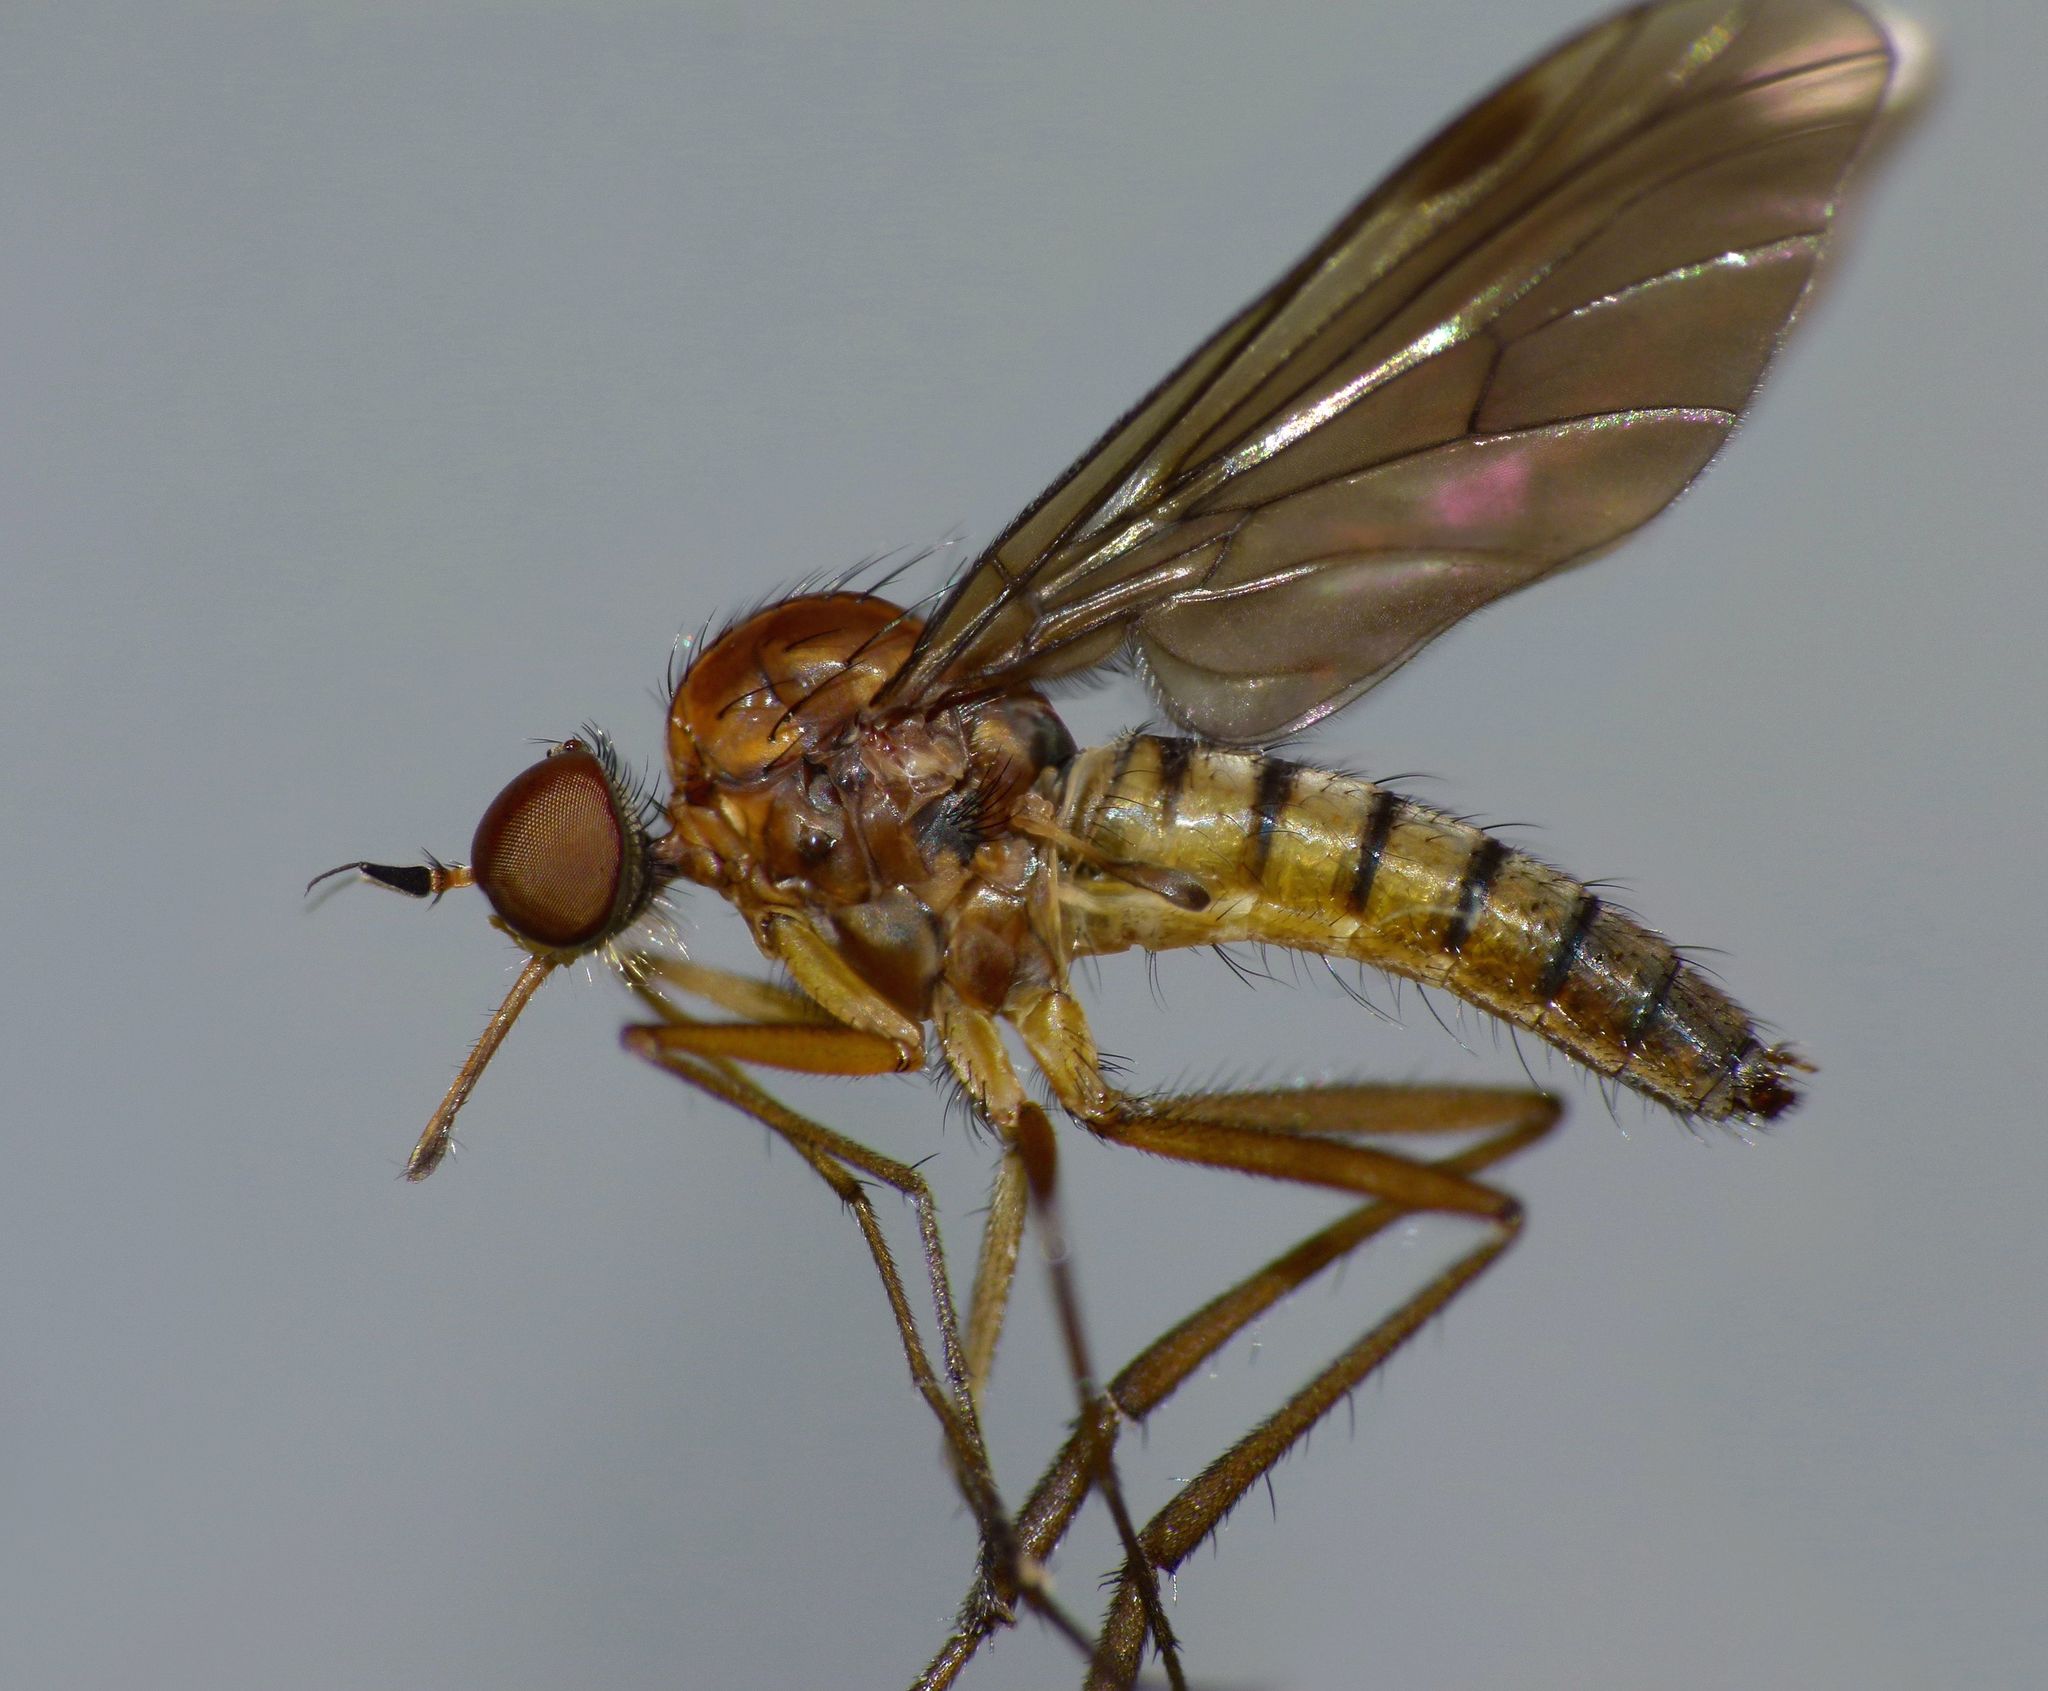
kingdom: Animalia
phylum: Arthropoda
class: Insecta
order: Diptera
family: Brachystomatidae
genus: Heterophlebus
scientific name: Heterophlebus
